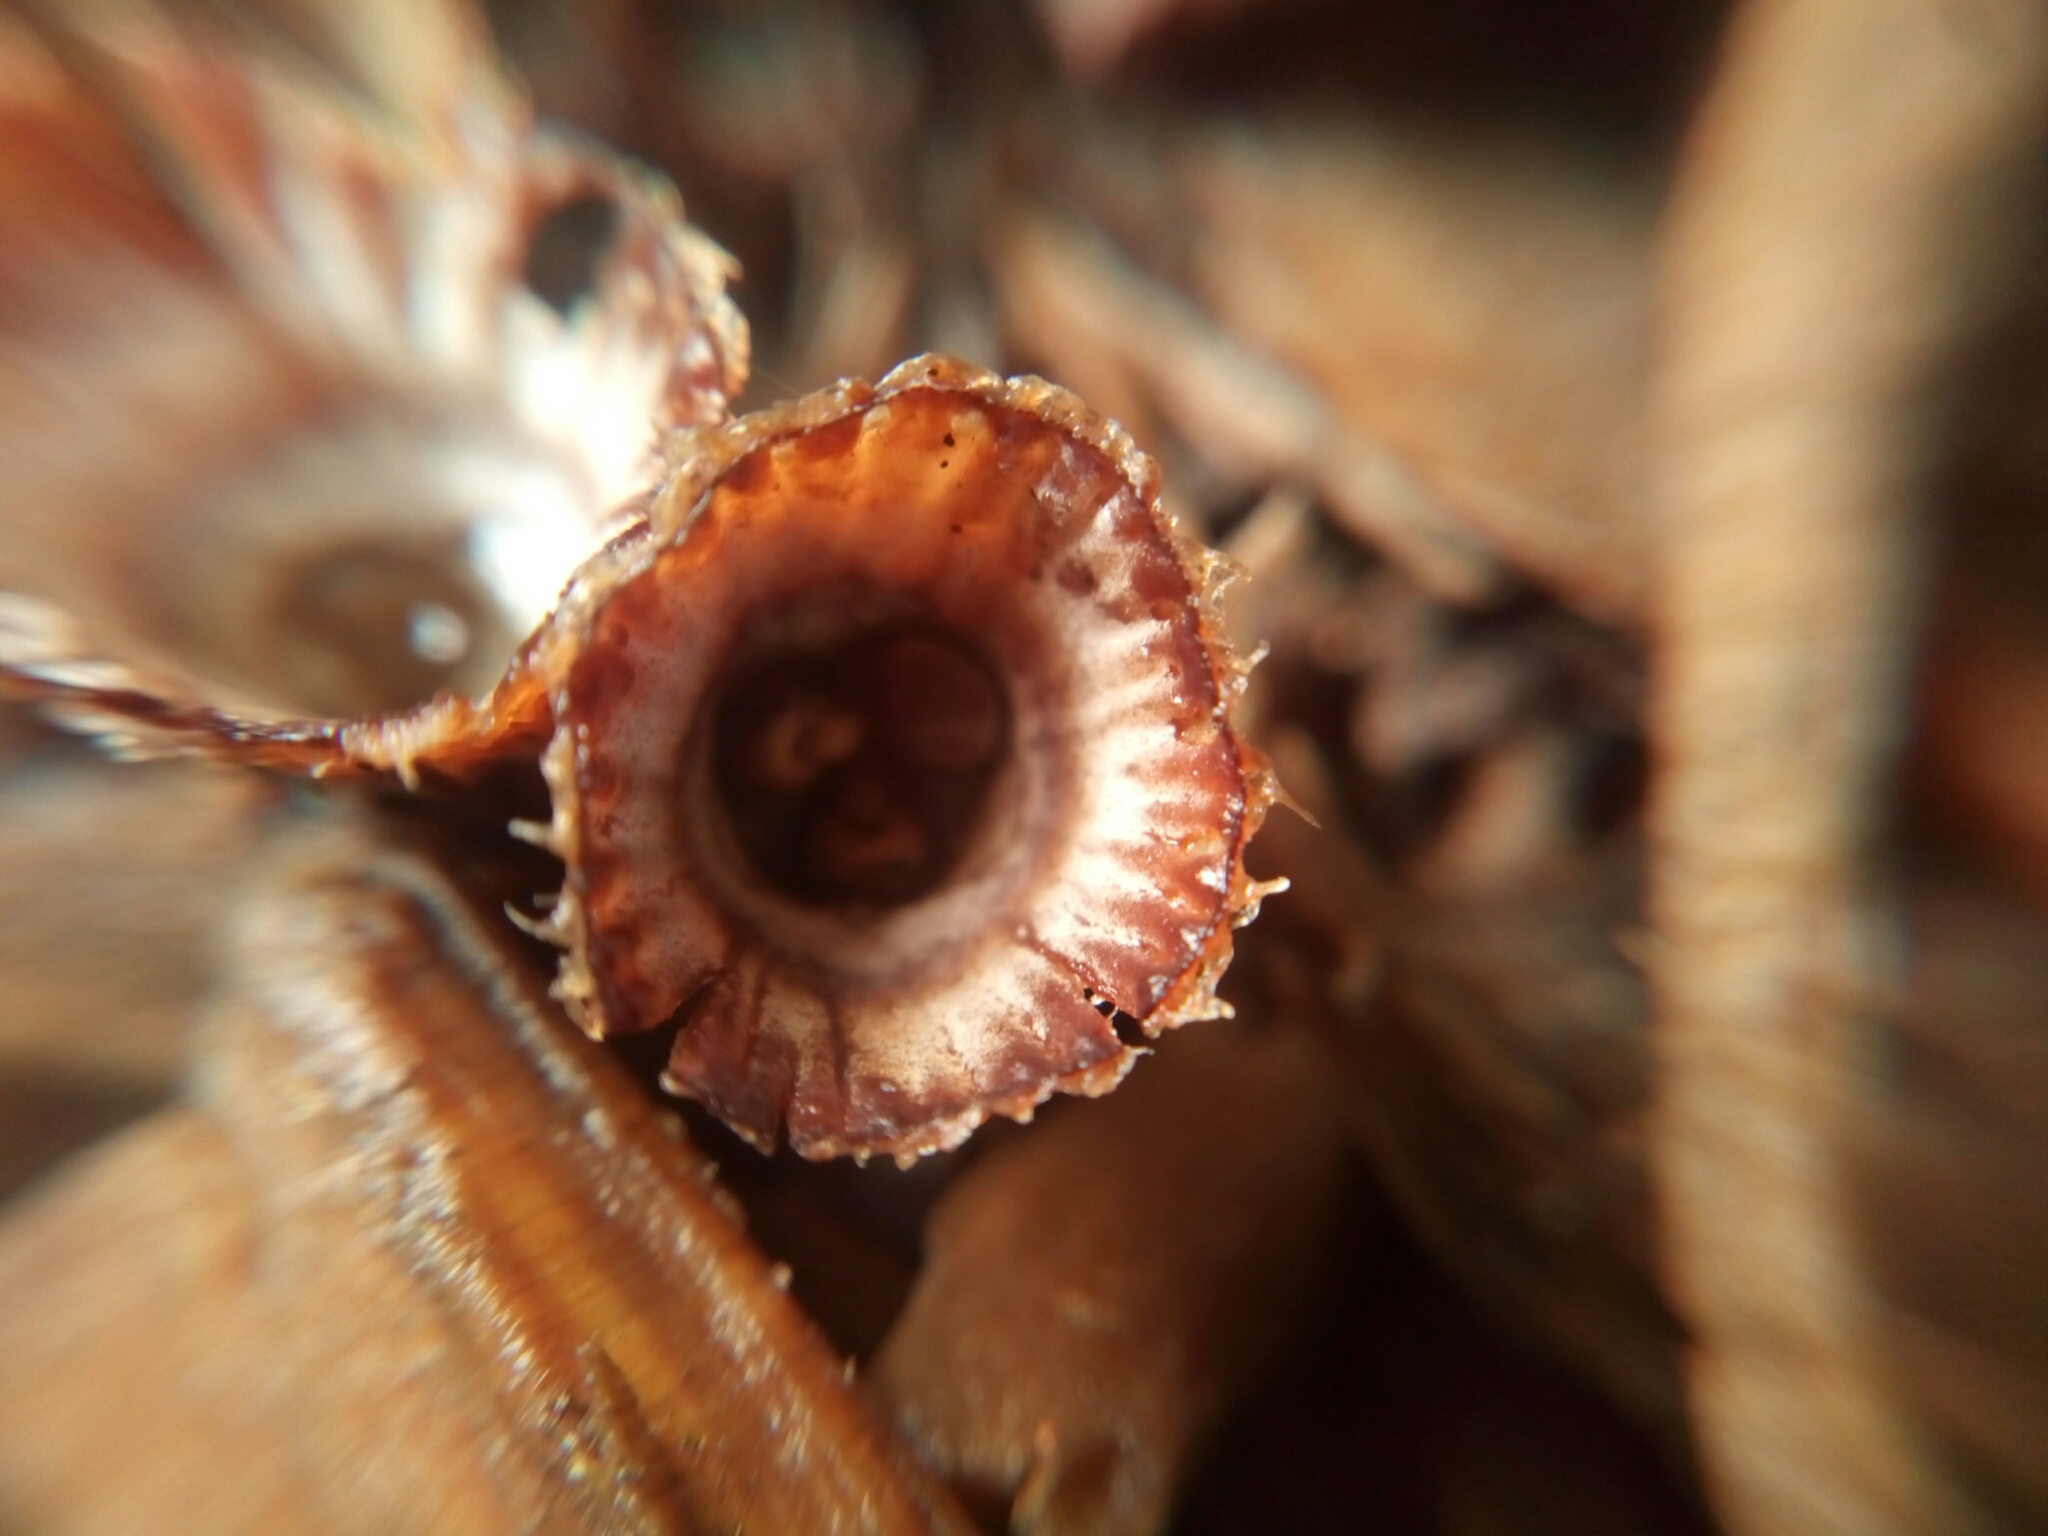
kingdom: Fungi
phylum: Basidiomycota
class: Agaricomycetes
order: Agaricales
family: Agaricaceae
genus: Cyathus
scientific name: Cyathus striatus
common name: Fluted bird's nest
